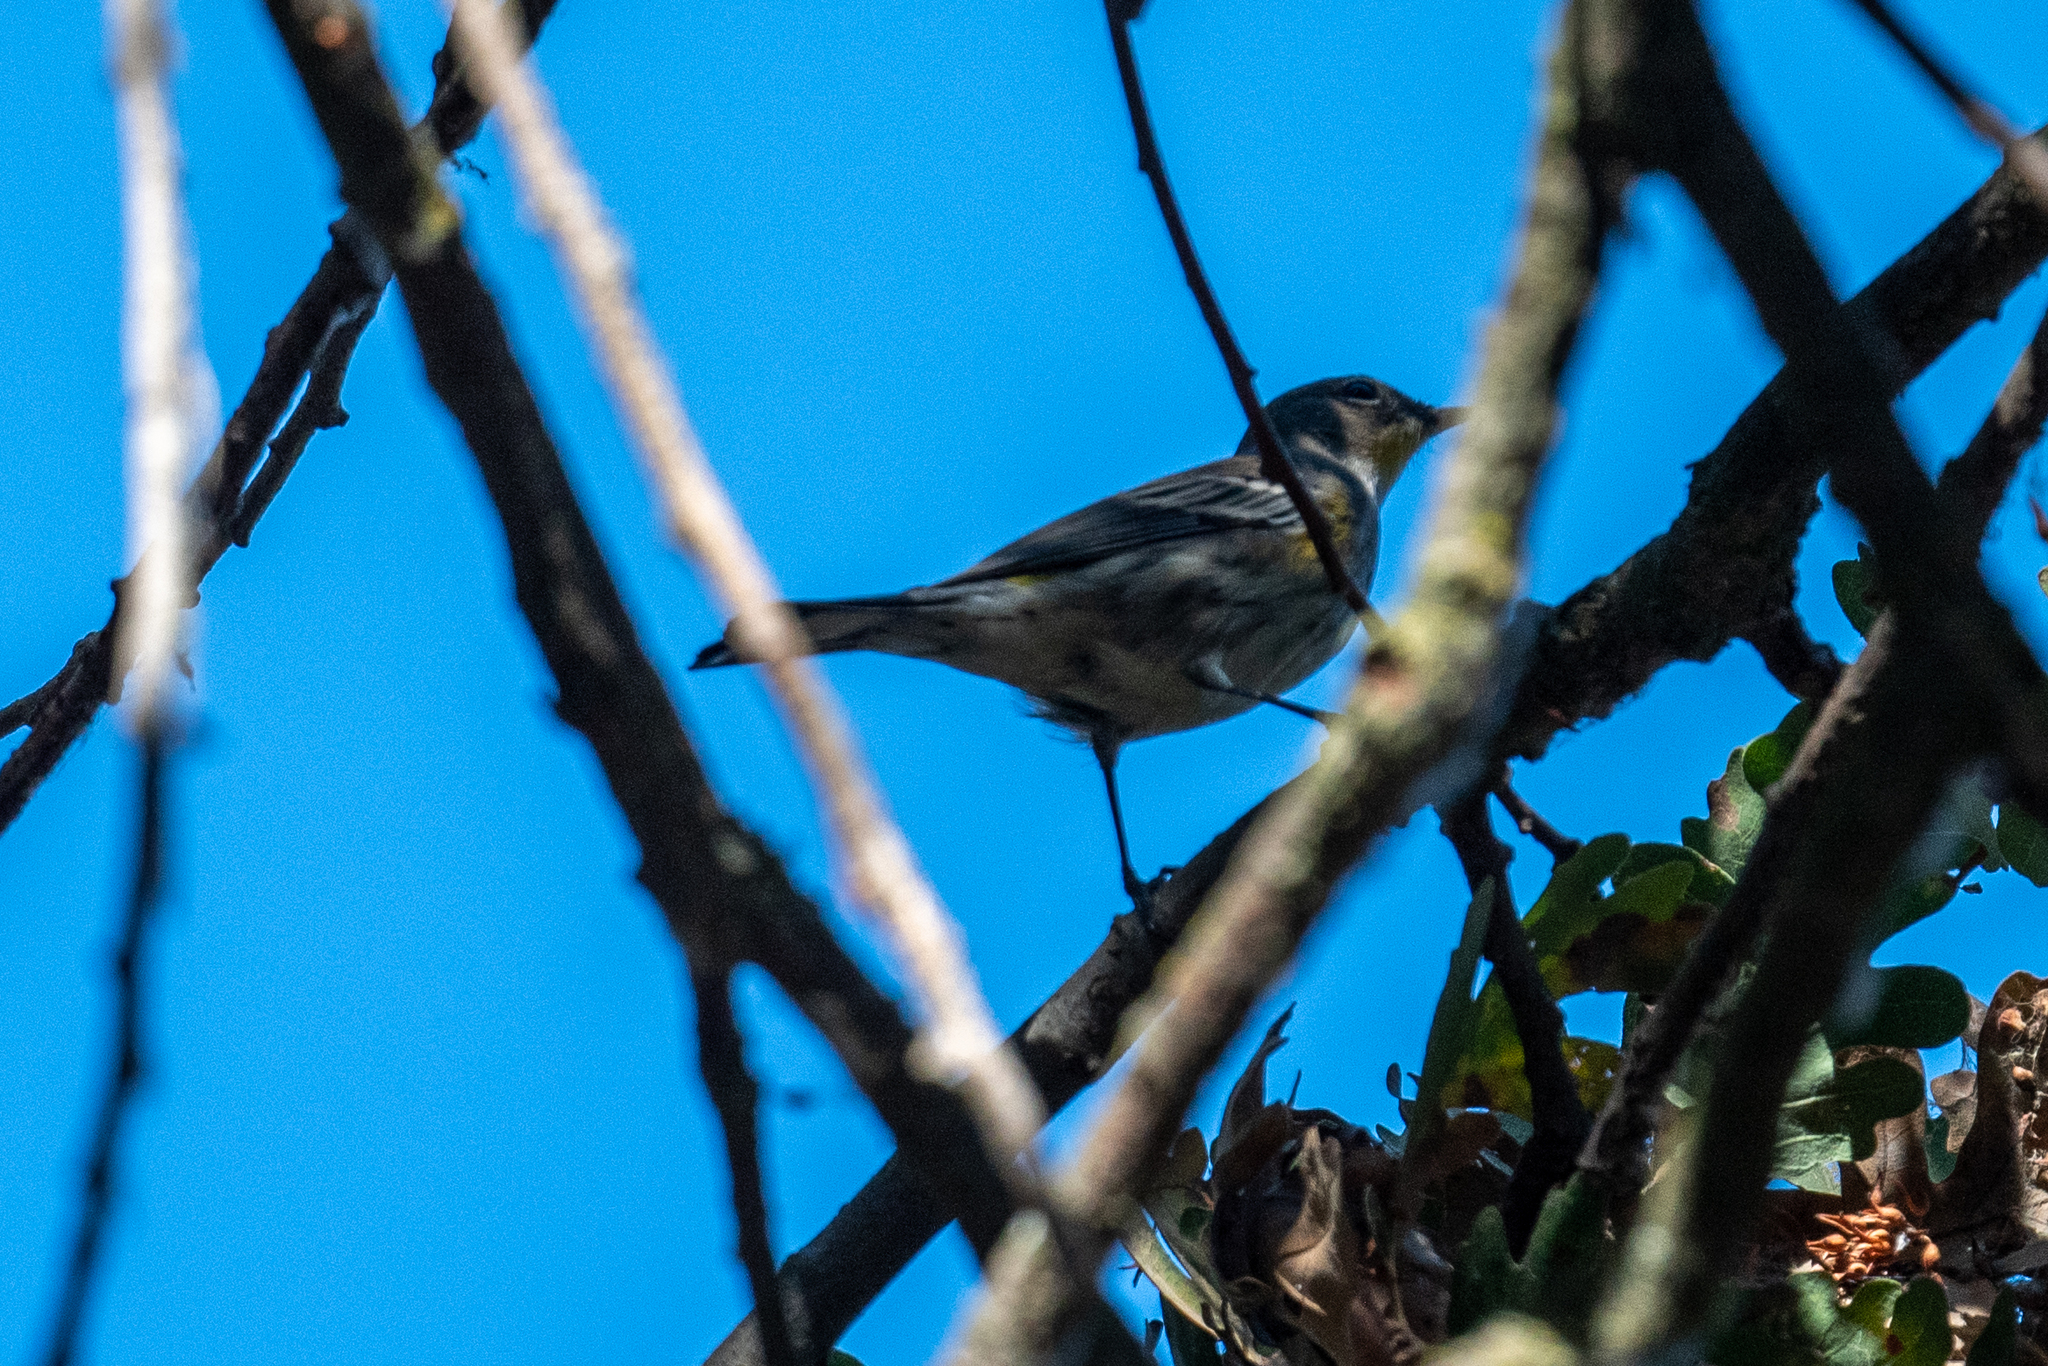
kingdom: Animalia
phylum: Chordata
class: Aves
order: Passeriformes
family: Parulidae
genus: Setophaga
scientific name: Setophaga coronata
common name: Myrtle warbler
